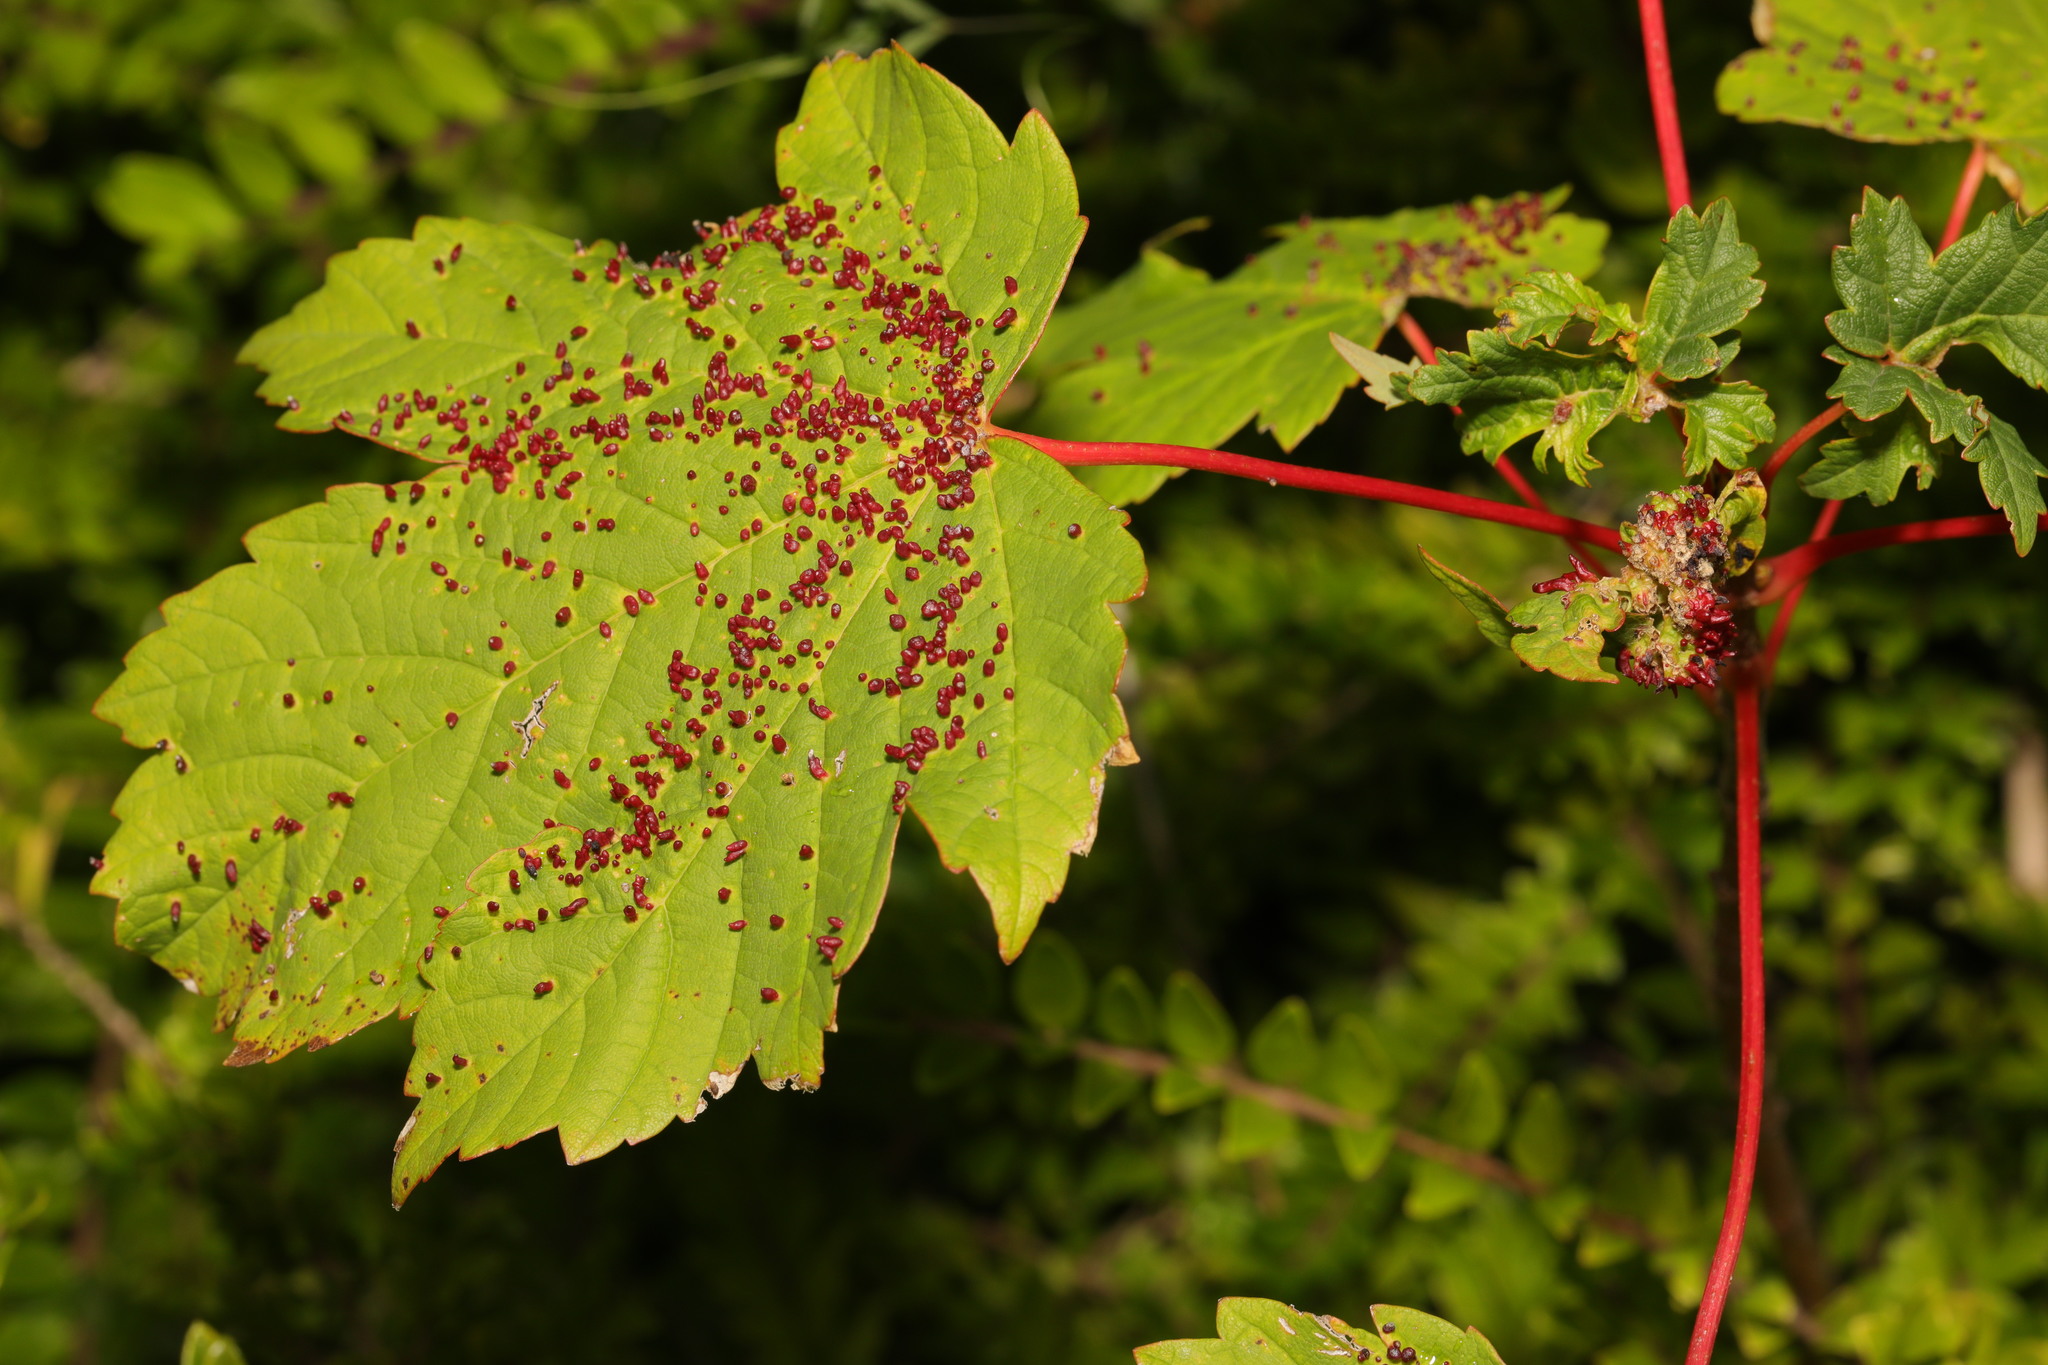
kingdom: Plantae
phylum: Tracheophyta
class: Magnoliopsida
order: Sapindales
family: Sapindaceae
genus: Acer
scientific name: Acer pseudoplatanus
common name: Sycamore
